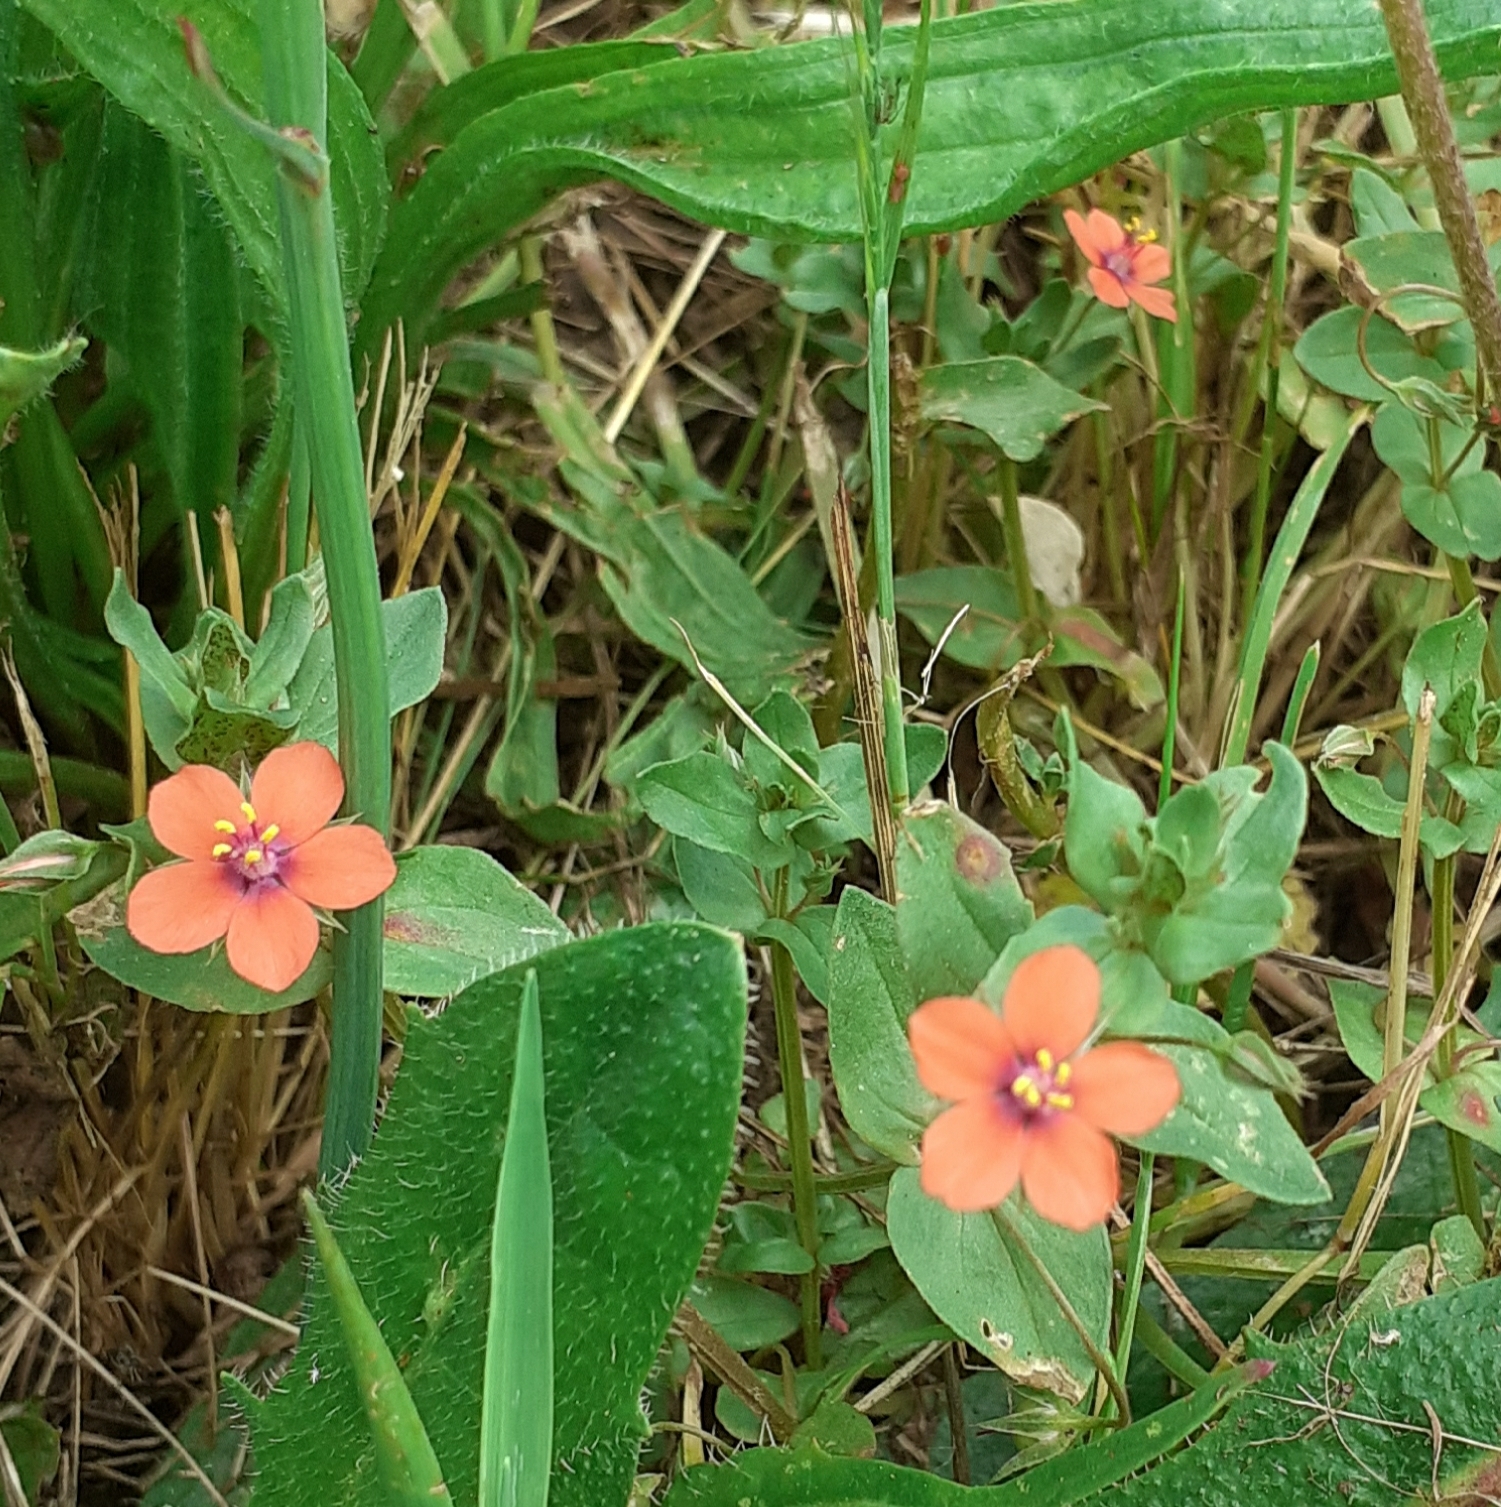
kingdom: Plantae
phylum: Tracheophyta
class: Magnoliopsida
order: Ericales
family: Primulaceae
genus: Lysimachia
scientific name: Lysimachia arvensis
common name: Scarlet pimpernel
